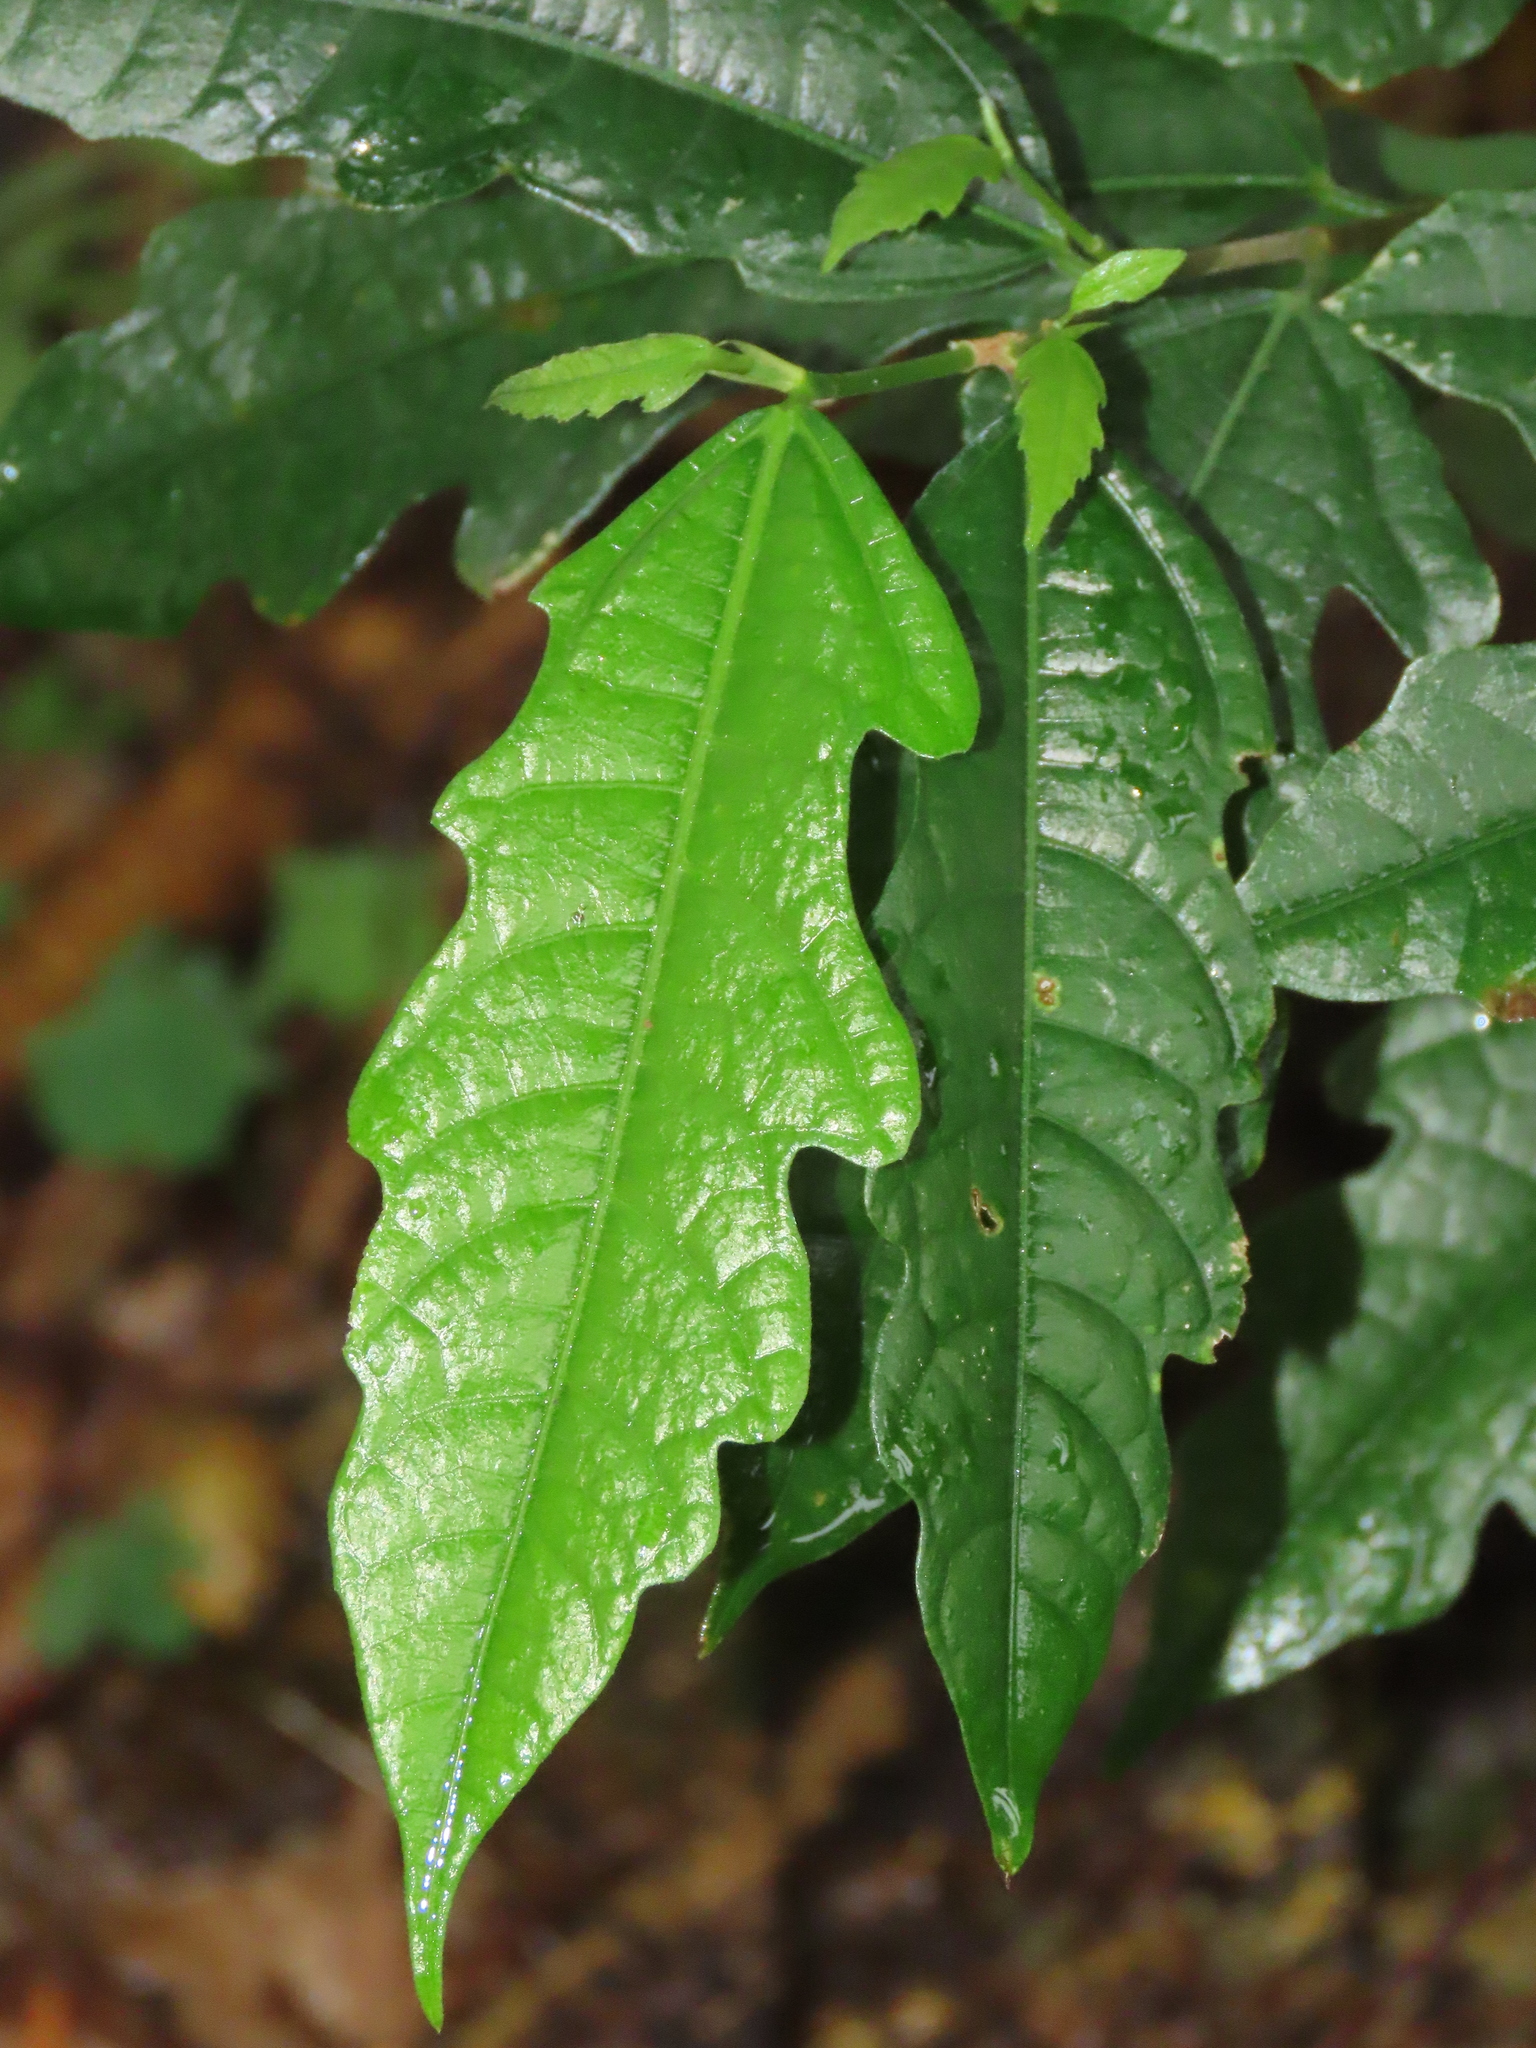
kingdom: Plantae
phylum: Tracheophyta
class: Magnoliopsida
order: Rosales
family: Moraceae
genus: Ficus
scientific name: Ficus ampelos
